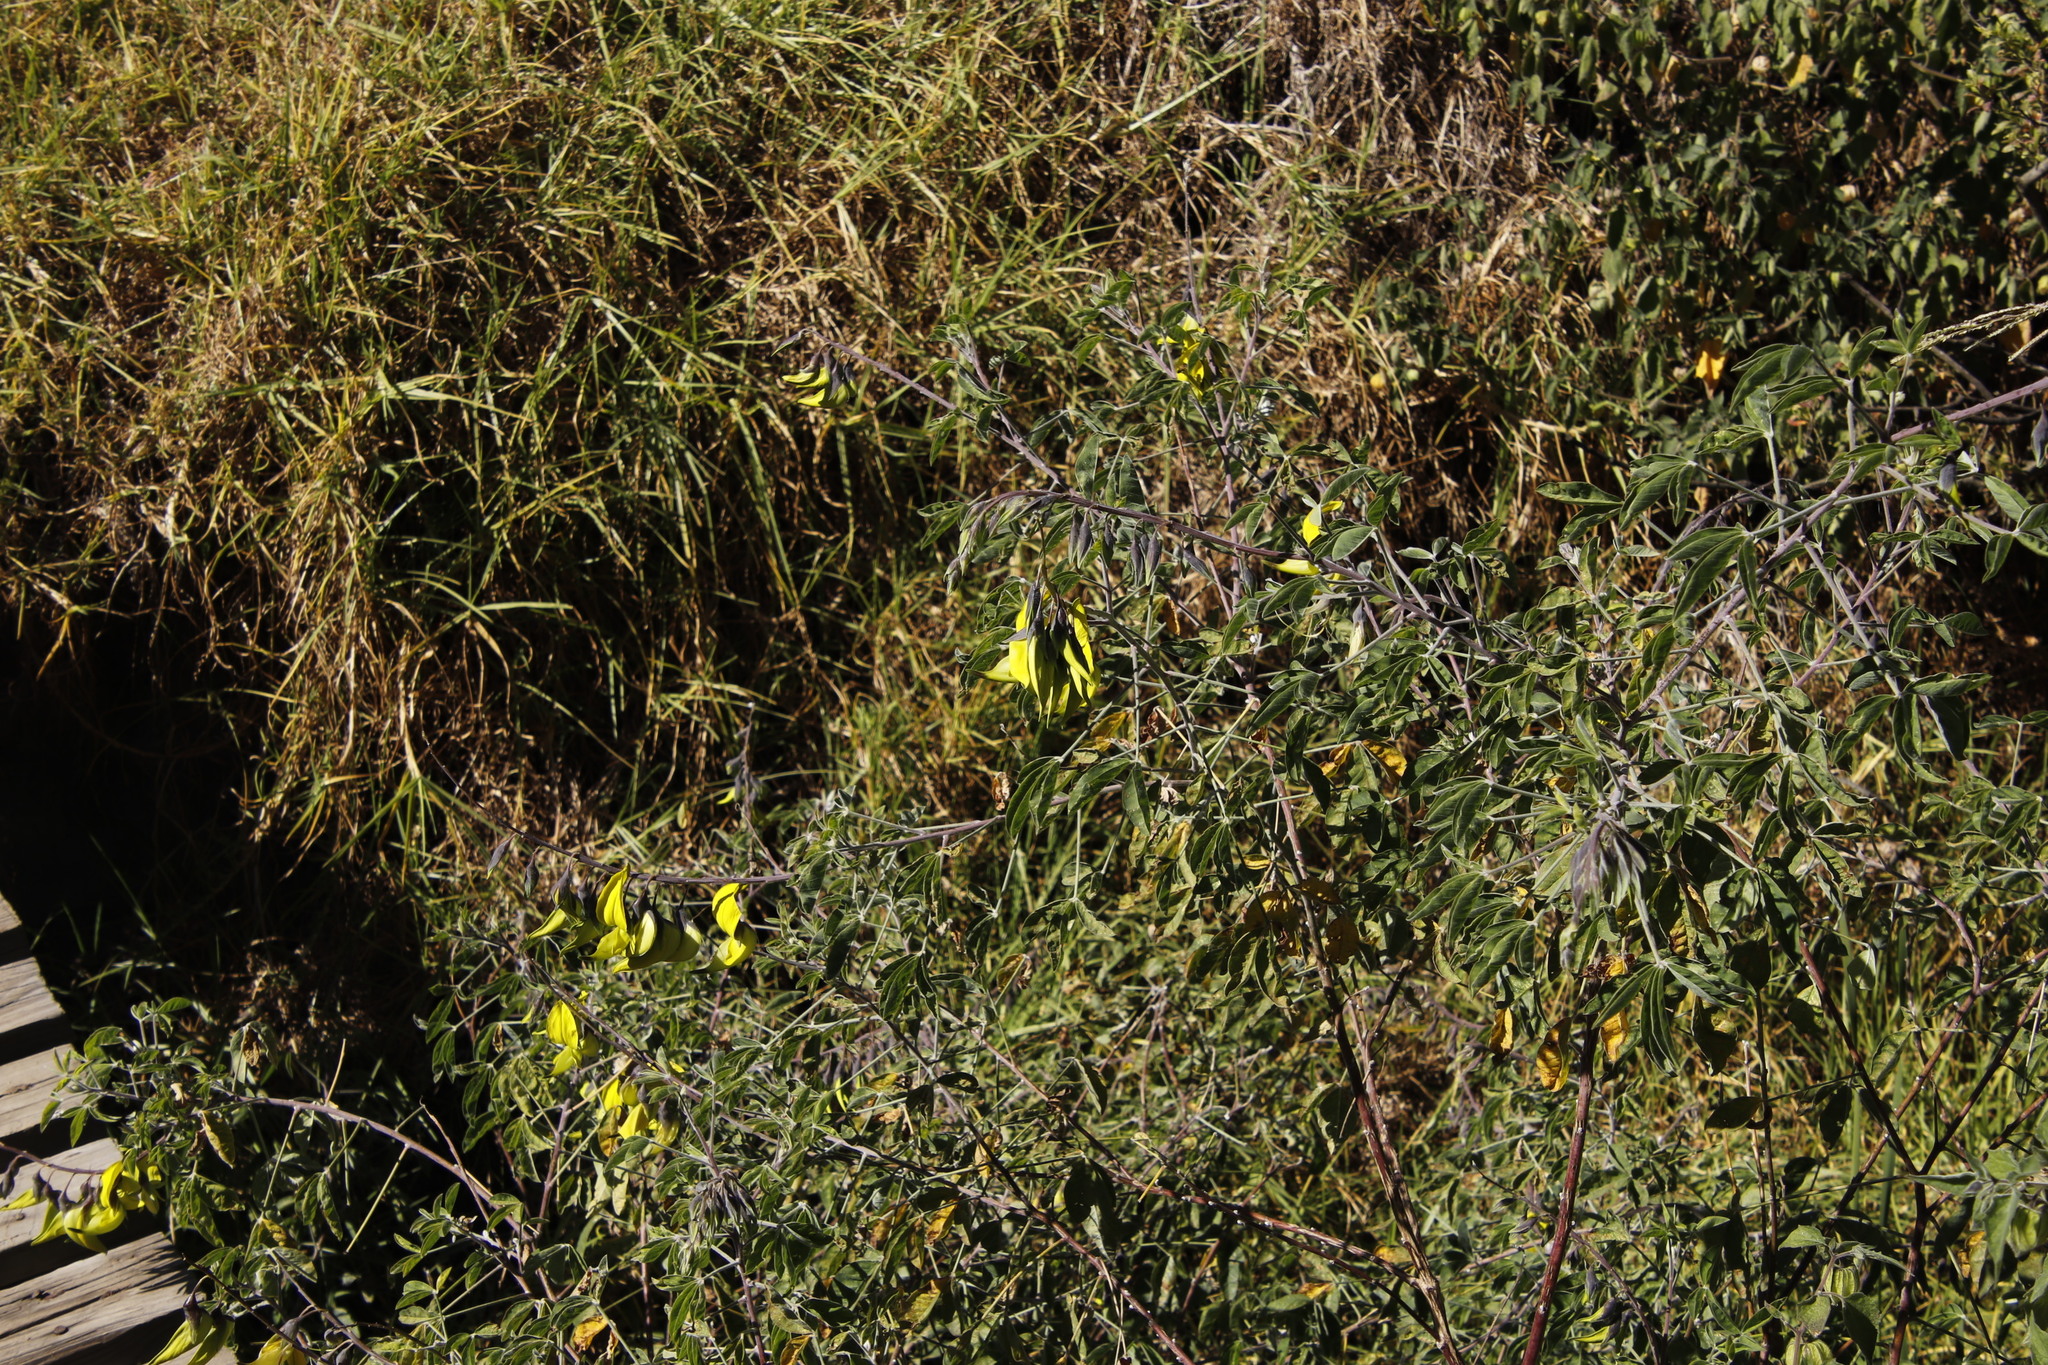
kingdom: Plantae
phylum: Tracheophyta
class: Magnoliopsida
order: Fabales
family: Fabaceae
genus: Crotalaria
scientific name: Crotalaria agatiflora
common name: Birdflower
